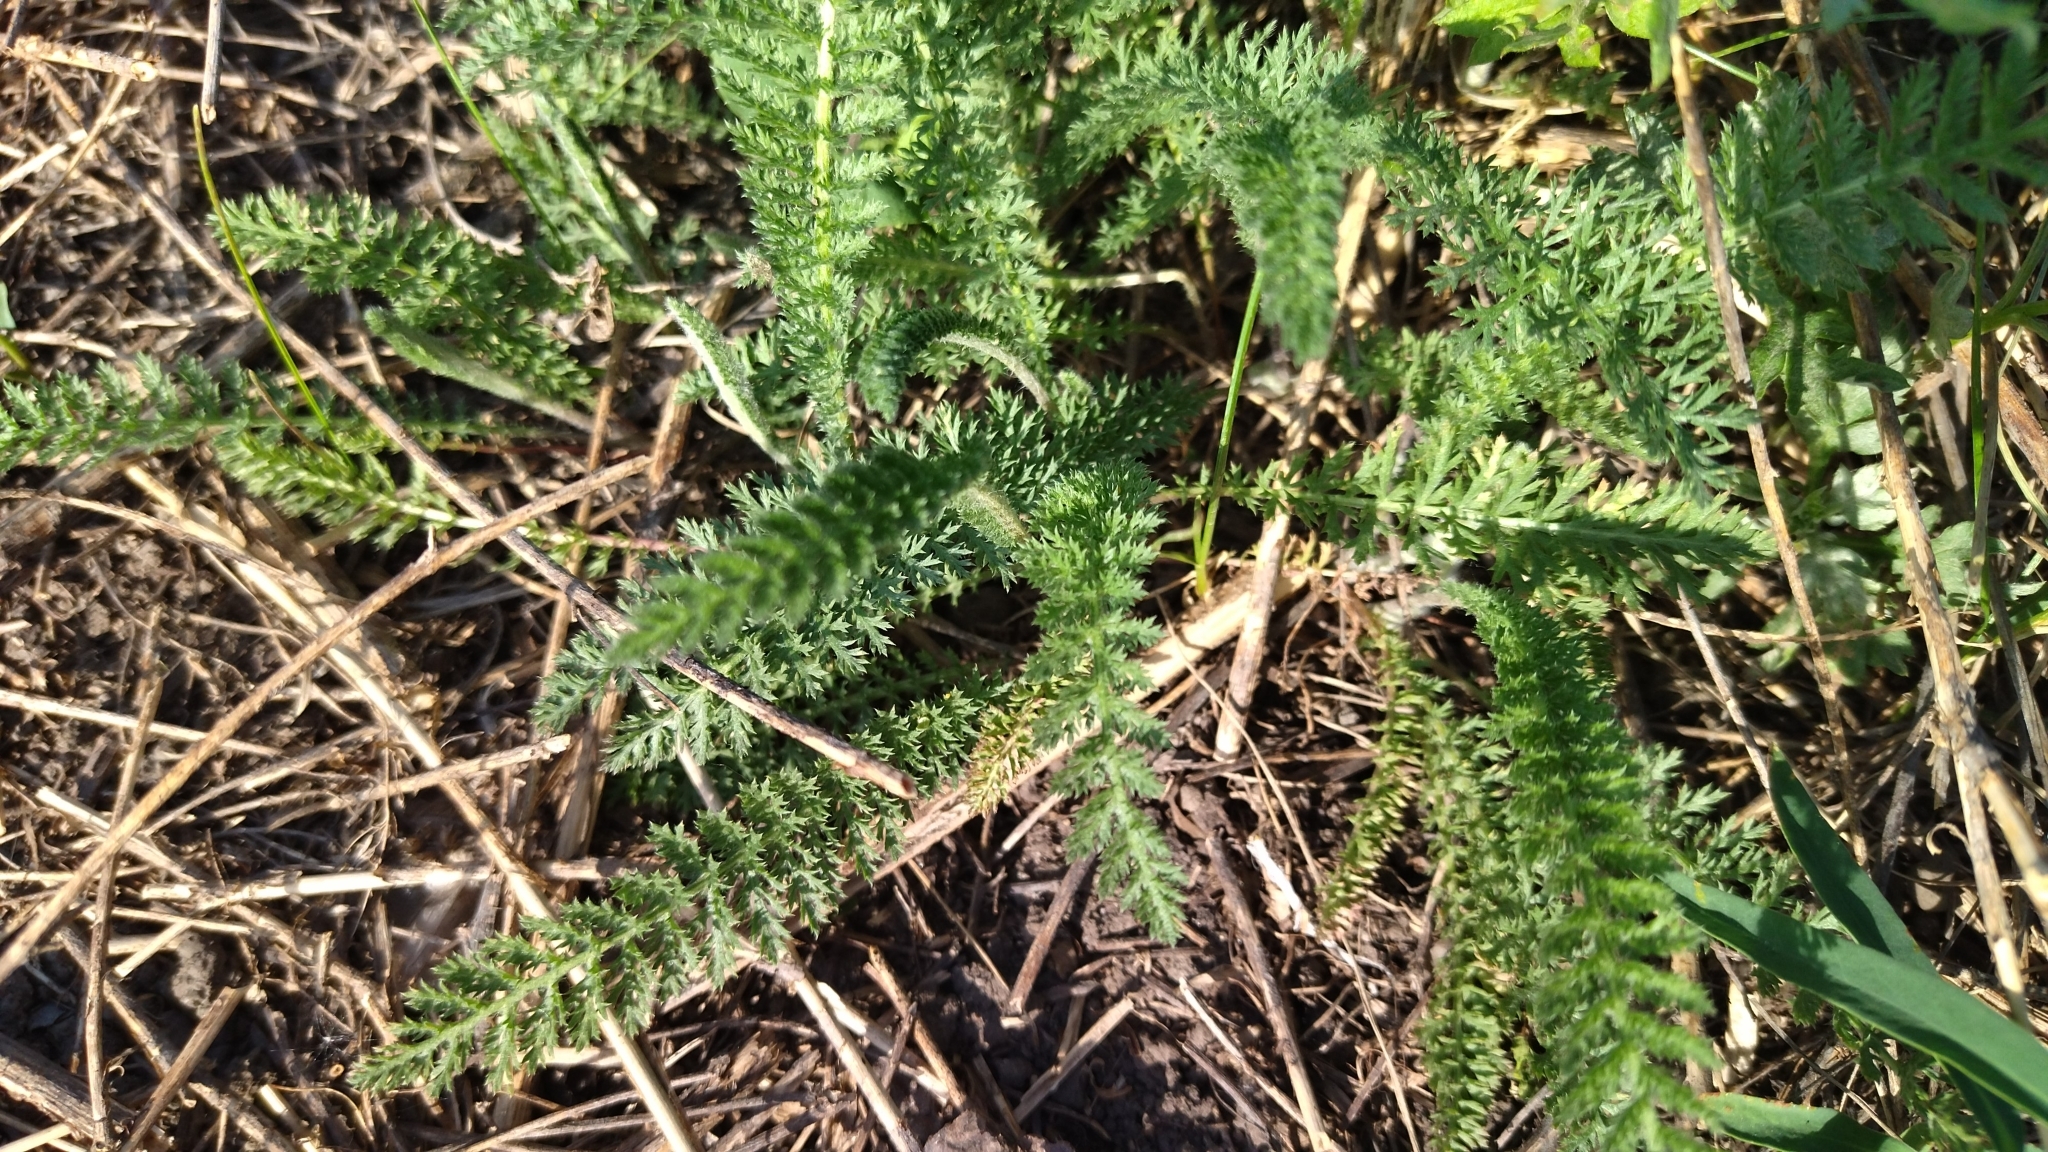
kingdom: Plantae
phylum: Tracheophyta
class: Magnoliopsida
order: Asterales
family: Asteraceae
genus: Achillea
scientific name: Achillea millefolium
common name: Yarrow
